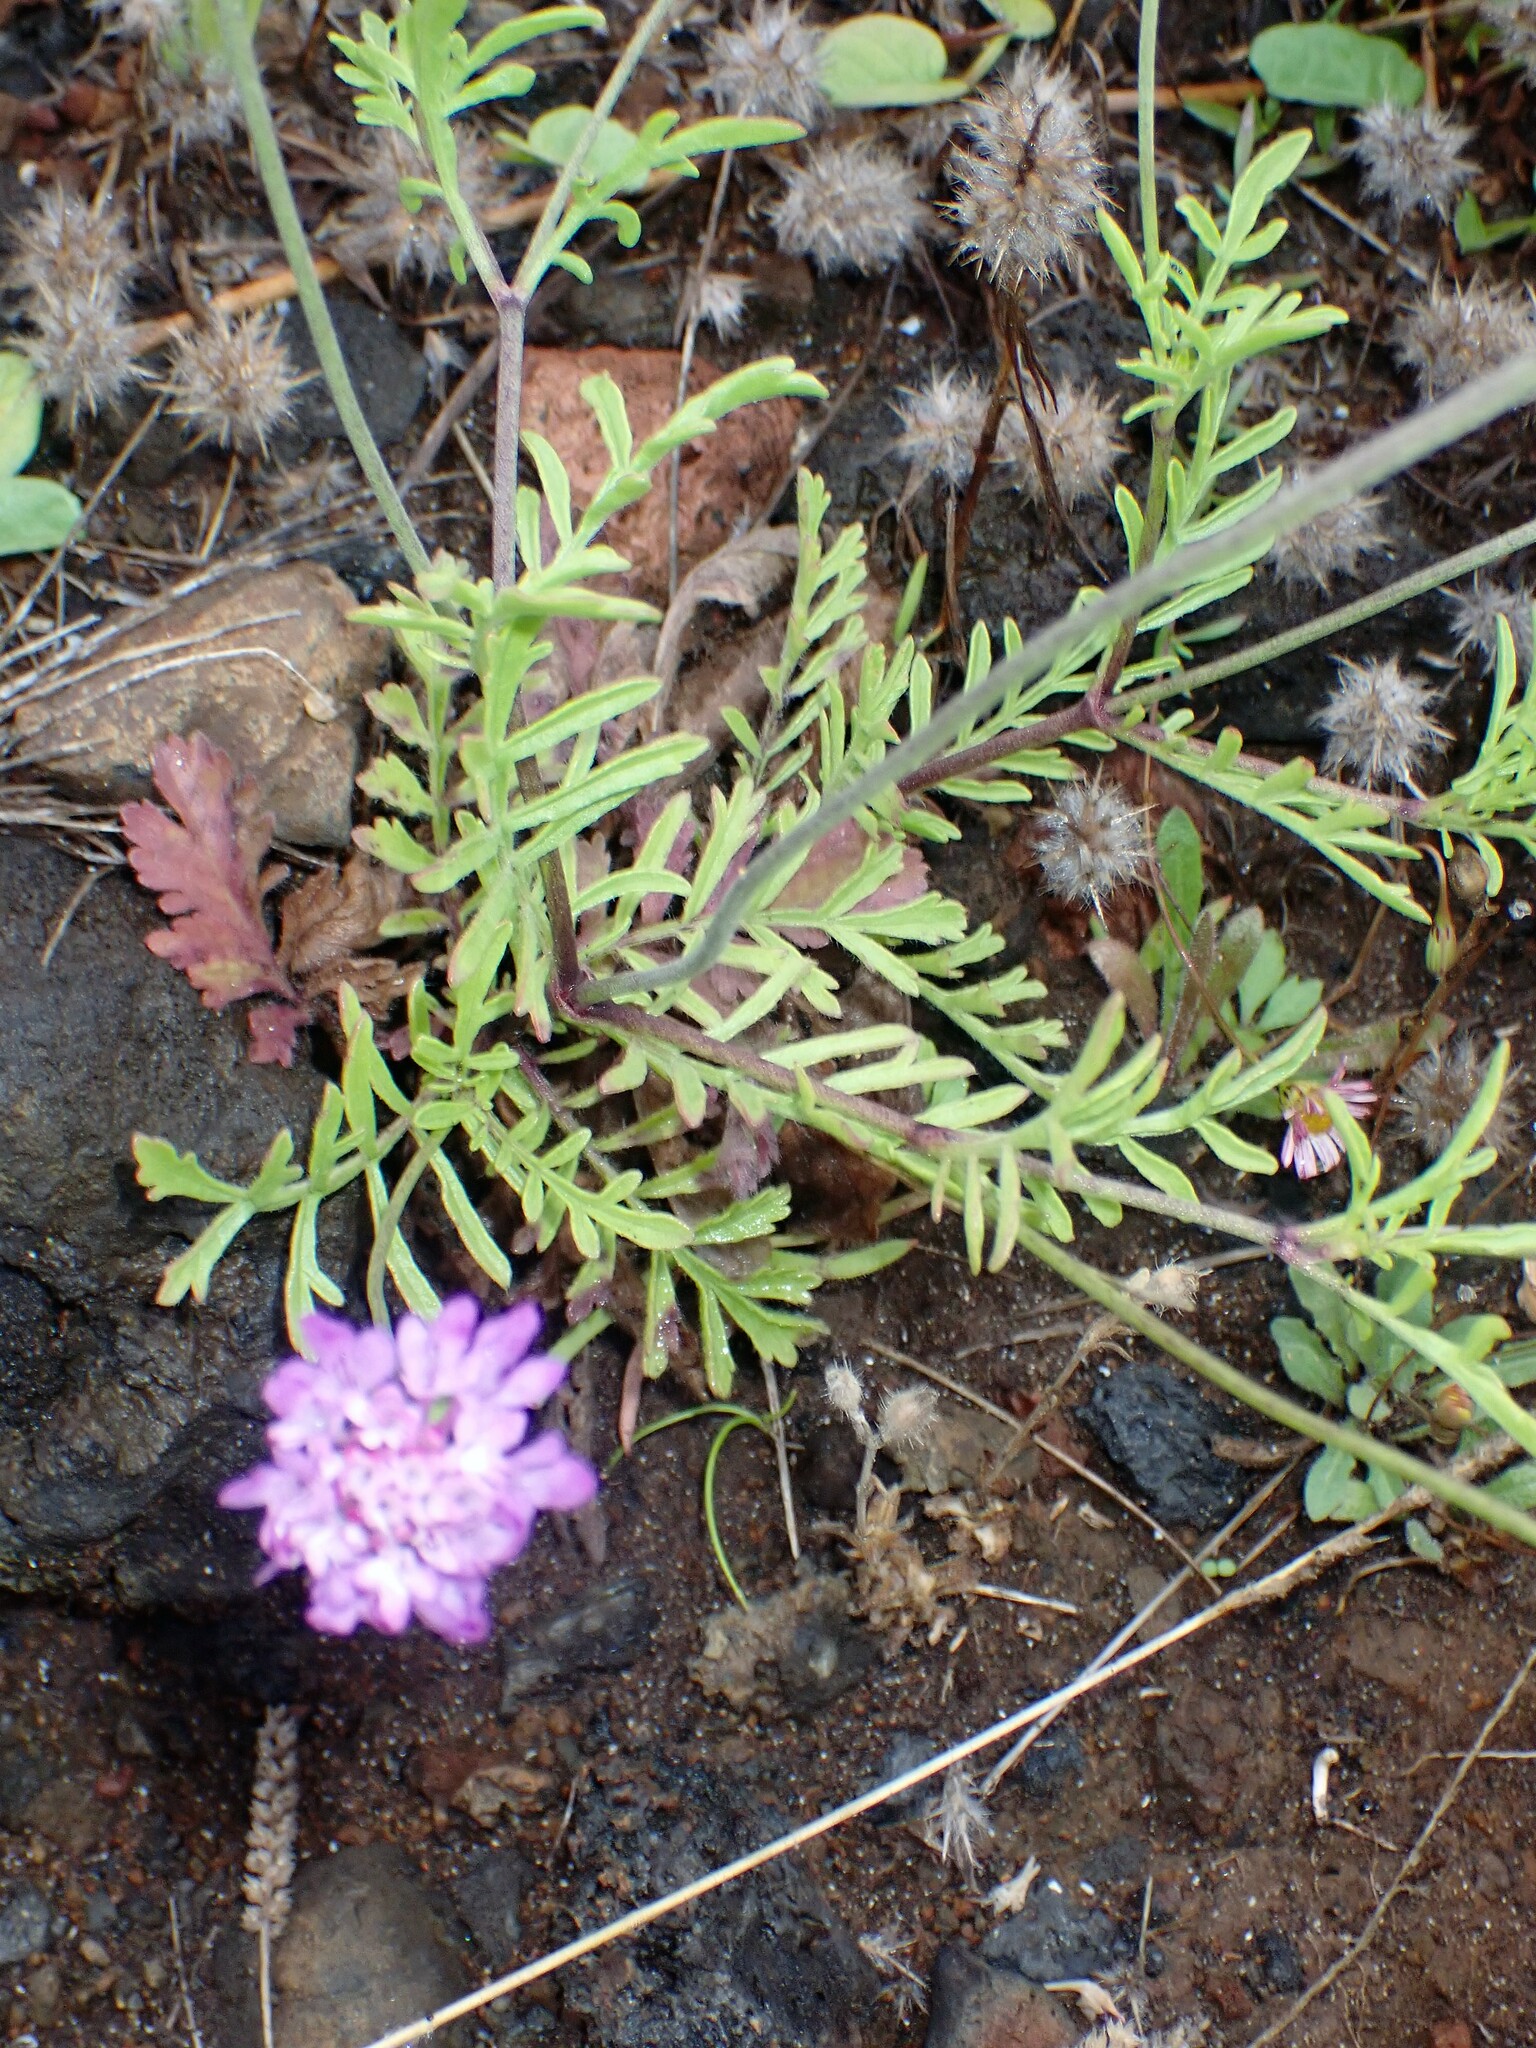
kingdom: Plantae
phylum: Tracheophyta
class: Magnoliopsida
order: Dipsacales
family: Caprifoliaceae
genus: Sixalix
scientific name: Sixalix atropurpurea
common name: Sweet scabious
